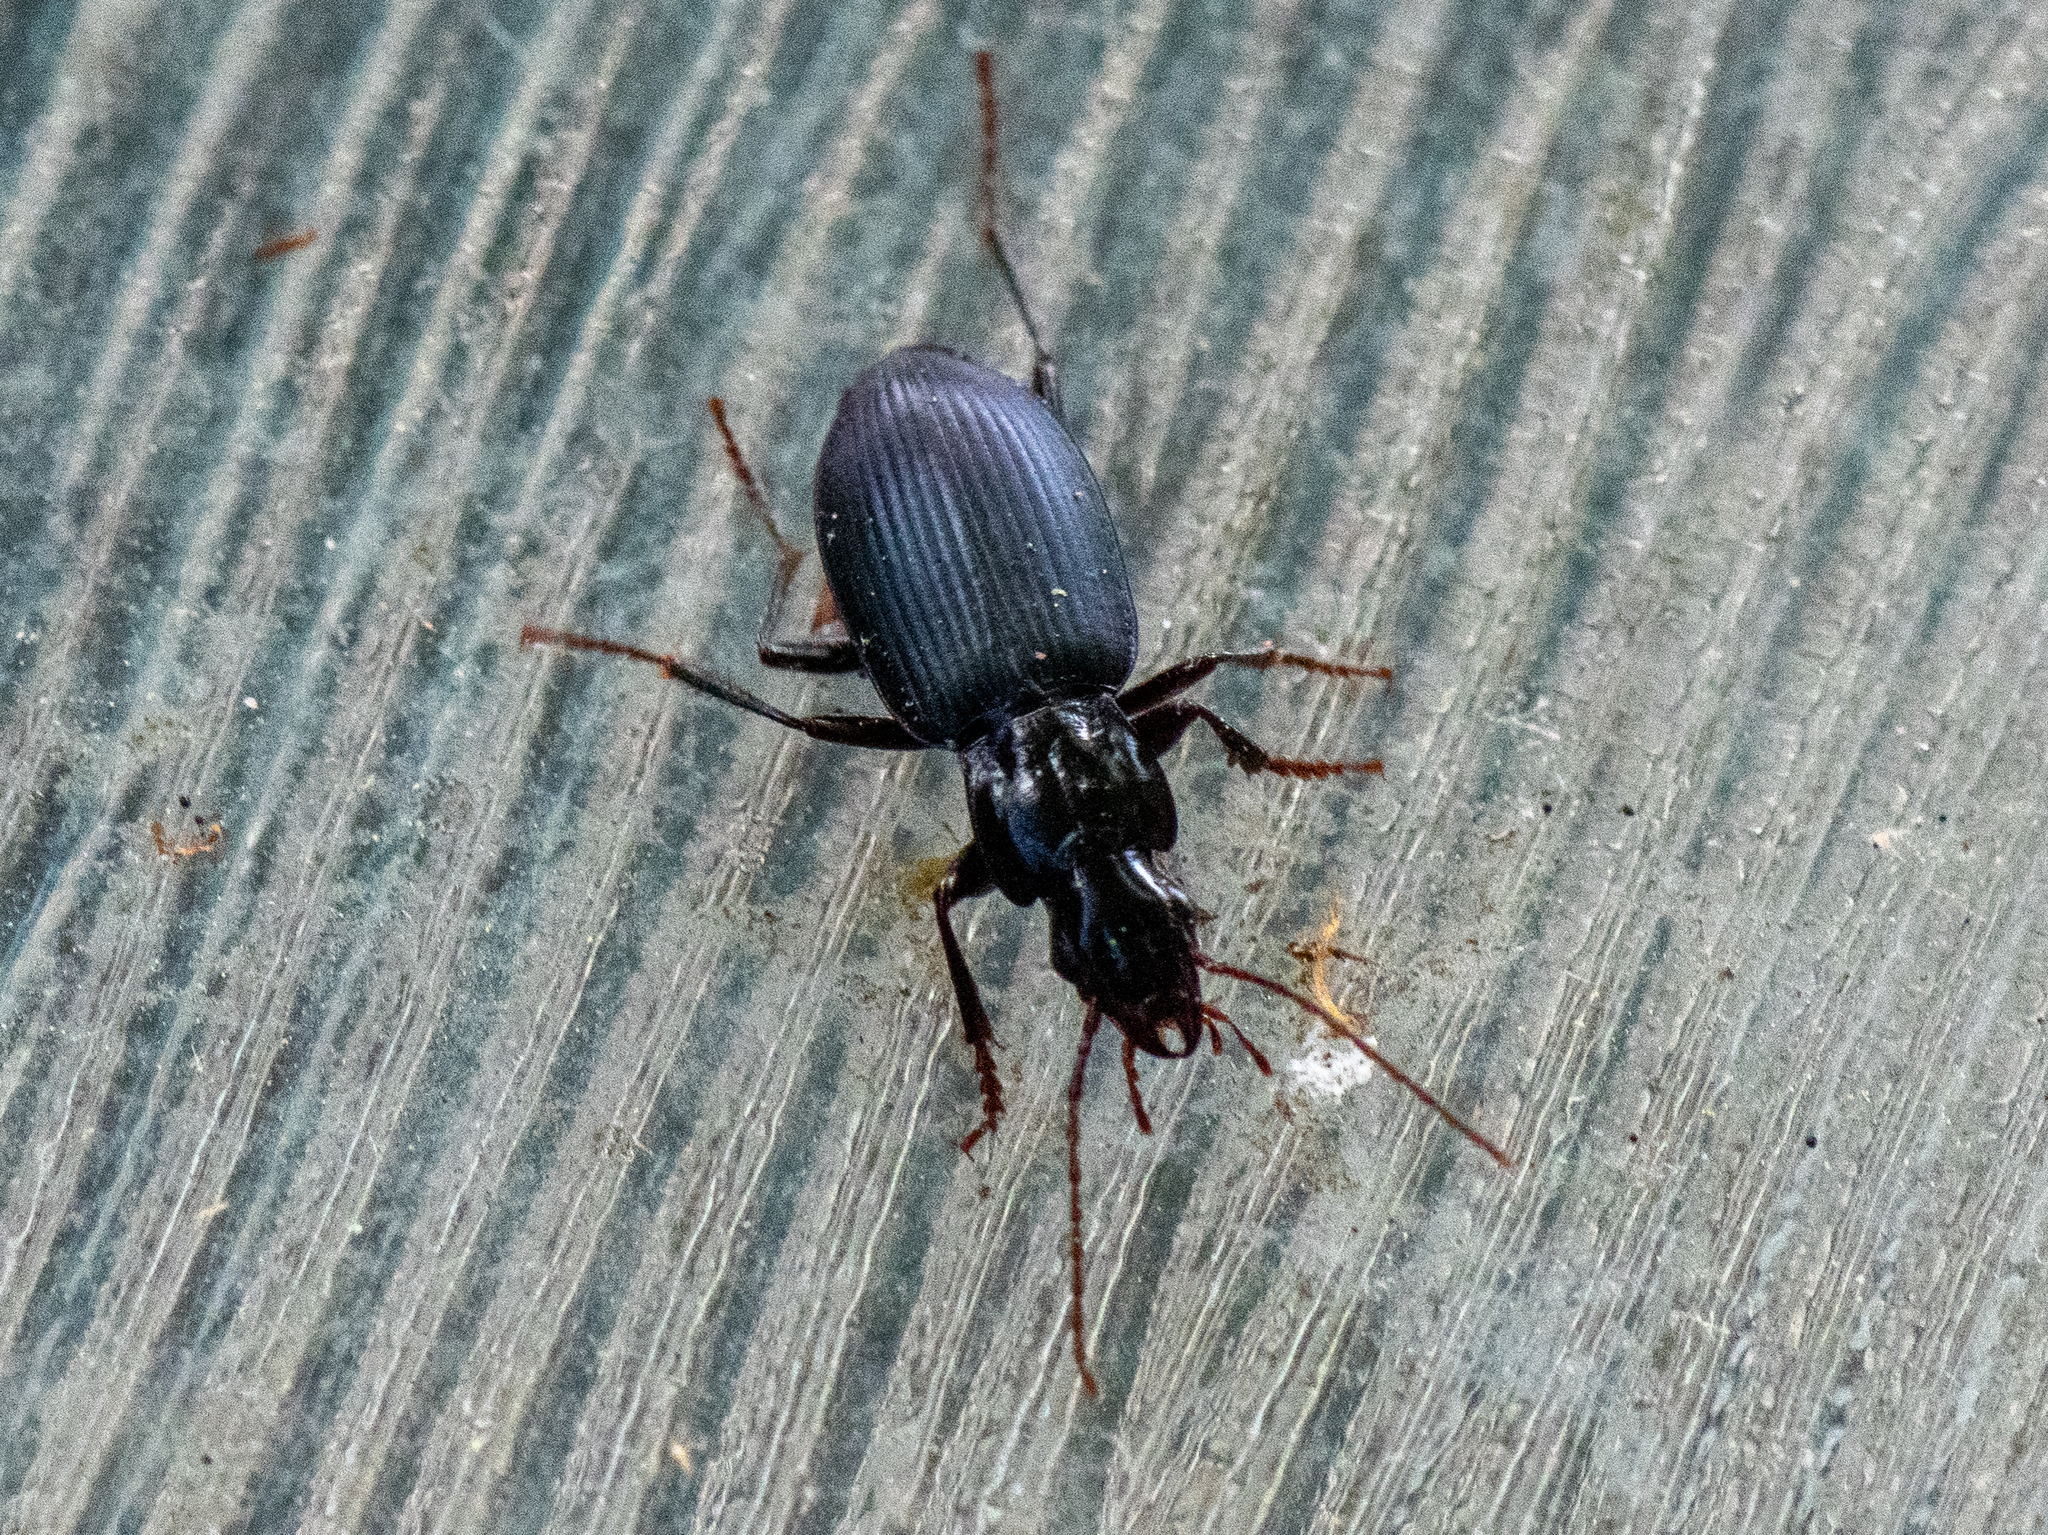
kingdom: Animalia
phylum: Arthropoda
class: Insecta
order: Coleoptera
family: Carabidae
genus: Laemostenus
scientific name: Laemostenus complanatus
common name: Cosmopolitan ground beetle
